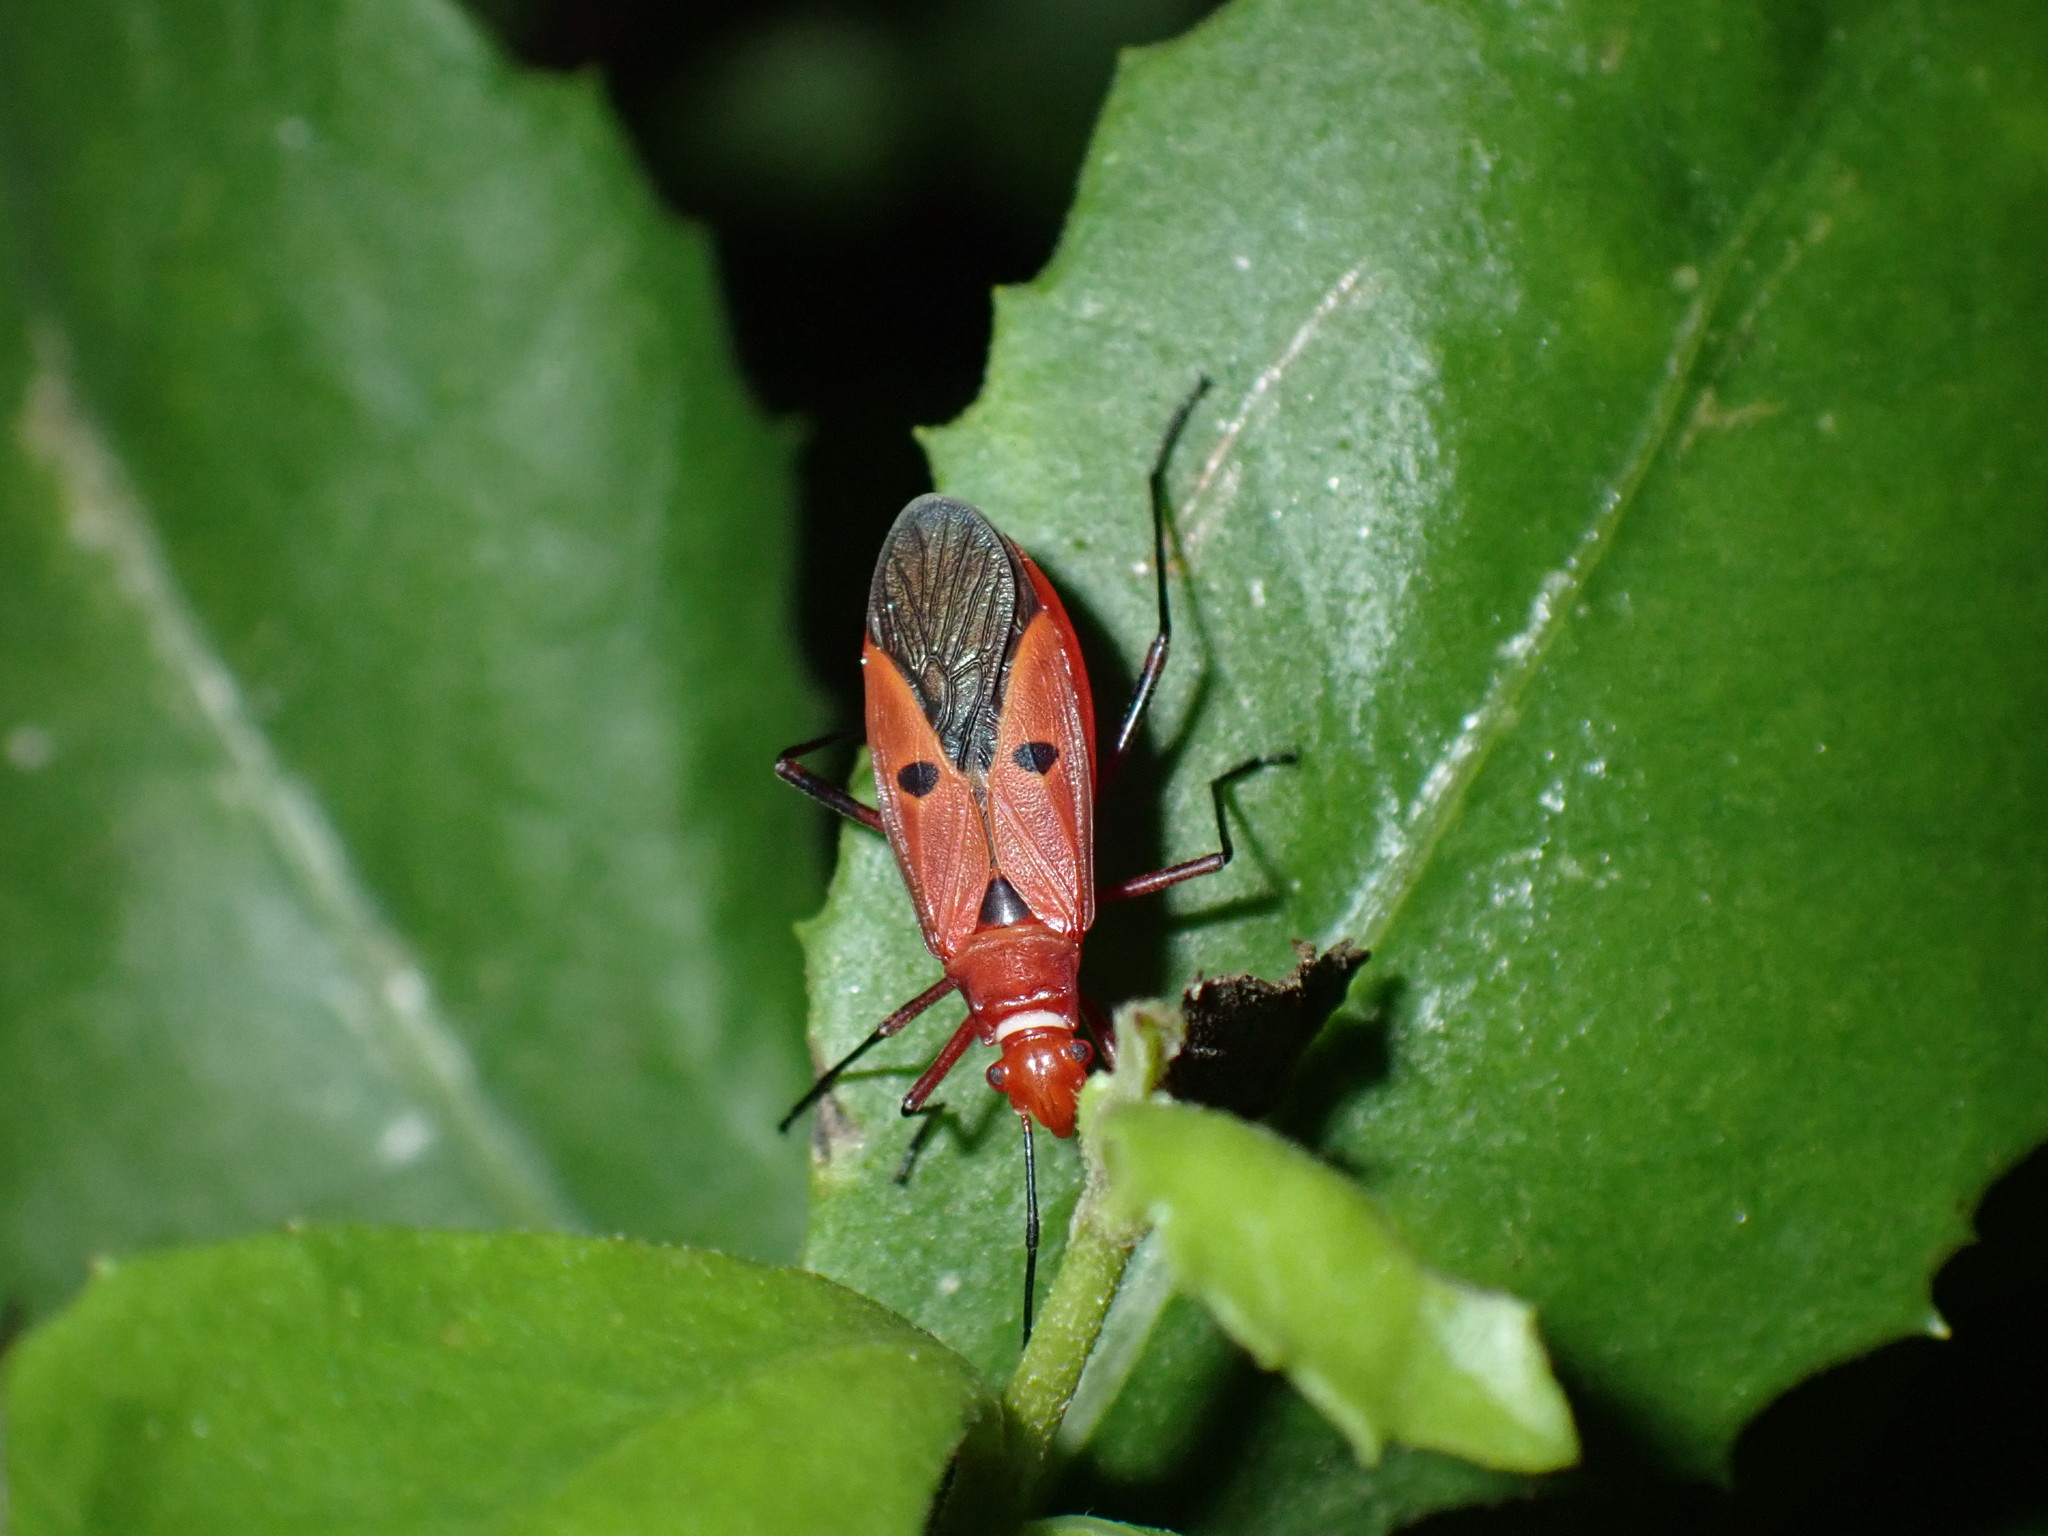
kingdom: Animalia
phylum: Arthropoda
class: Insecta
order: Hemiptera
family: Pyrrhocoridae
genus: Dysdercus
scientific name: Dysdercus cingulatus
